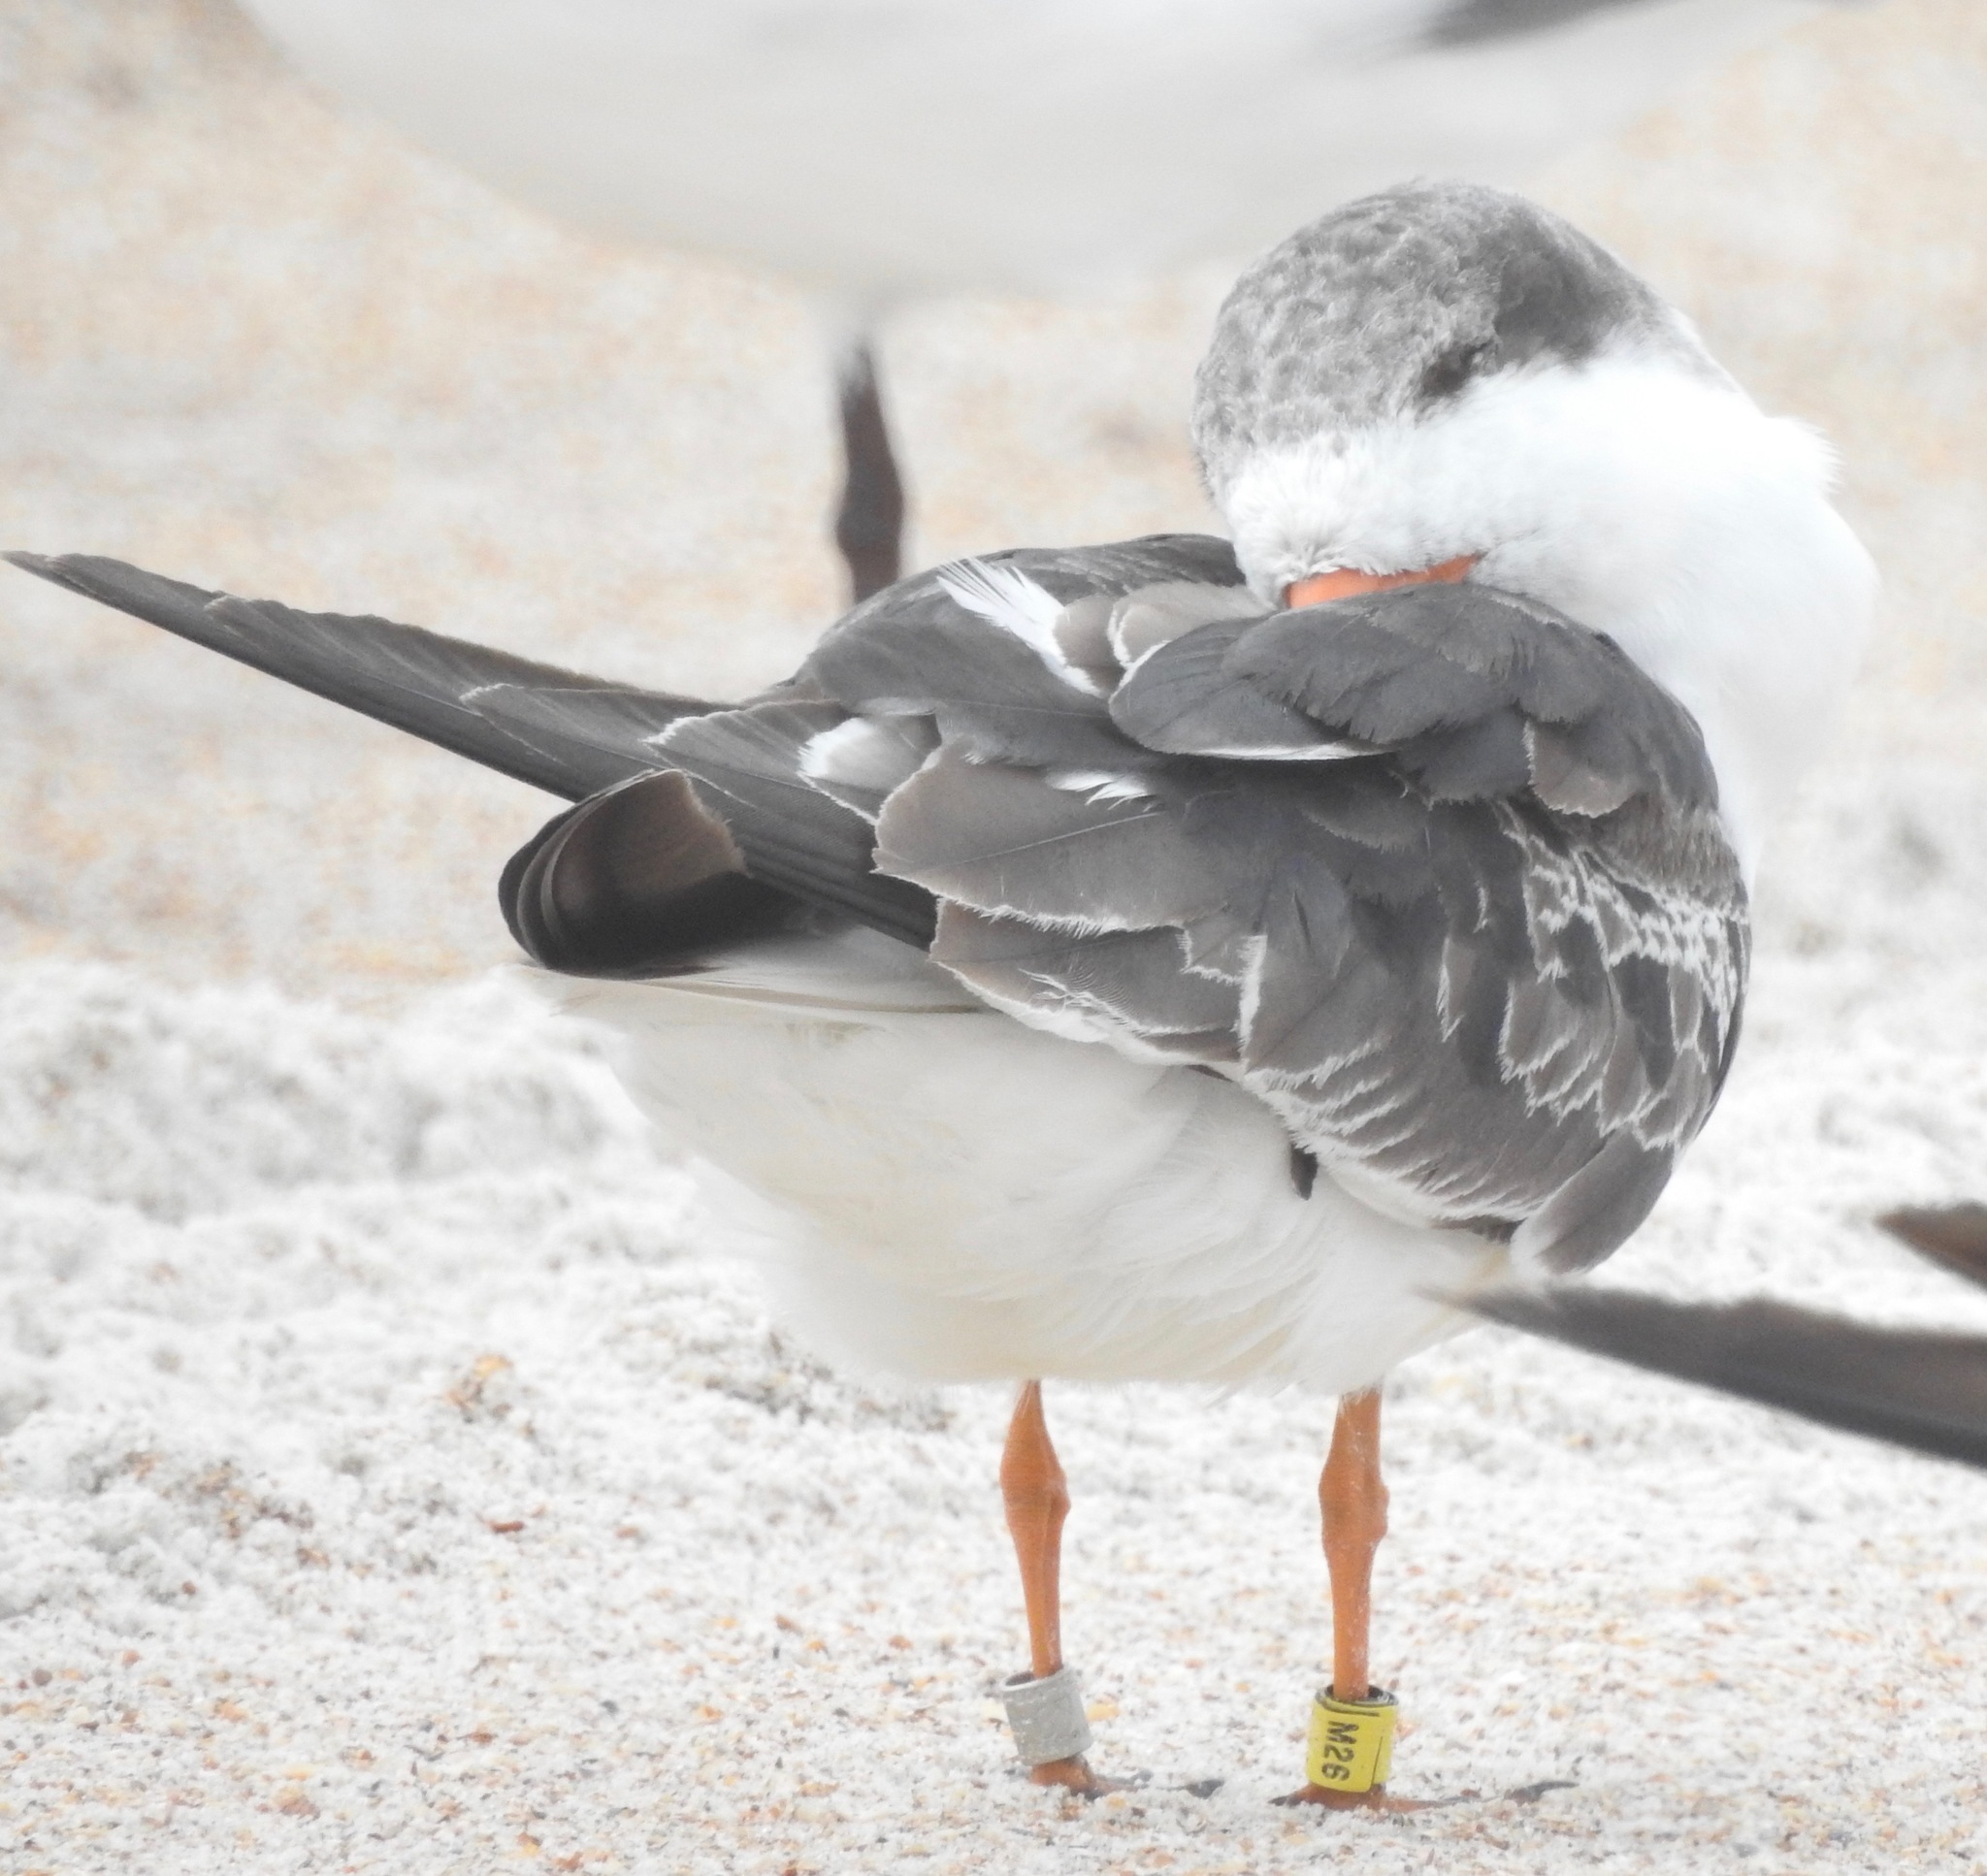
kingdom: Animalia
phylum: Chordata
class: Aves
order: Charadriiformes
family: Laridae
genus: Rynchops
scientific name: Rynchops niger
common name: Black skimmer
